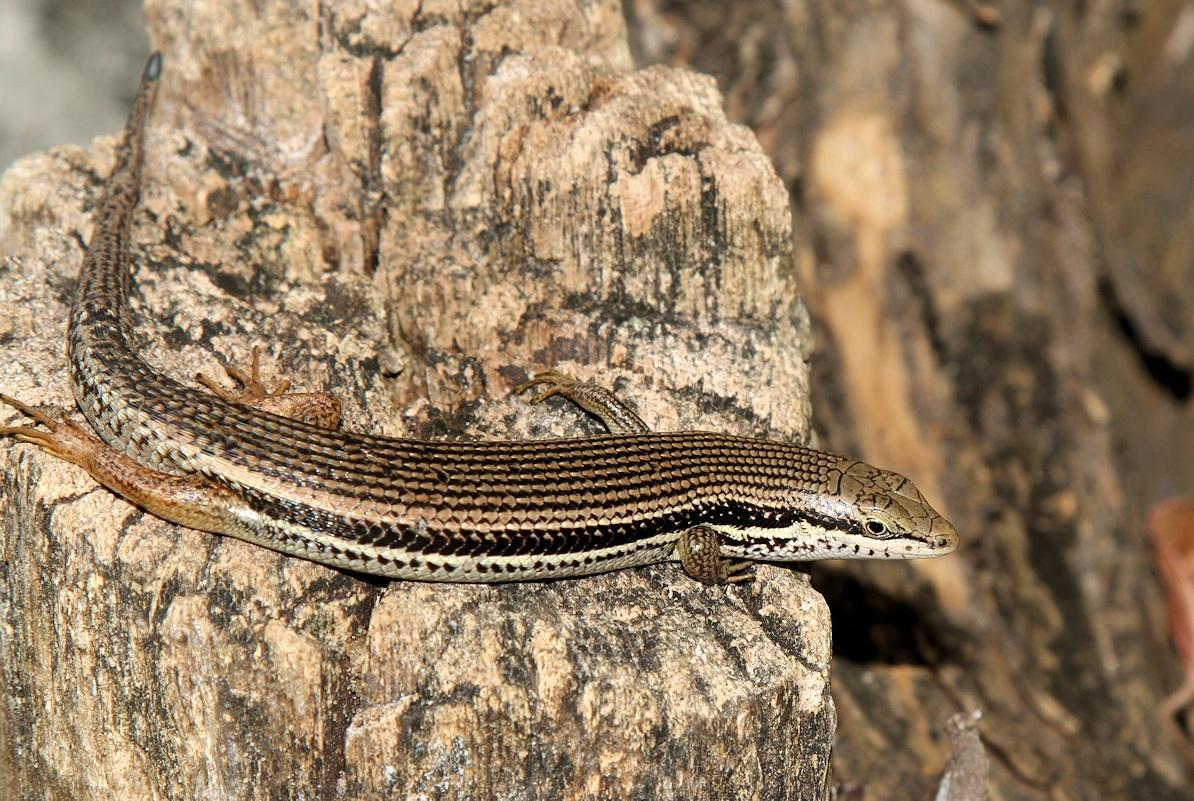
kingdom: Animalia
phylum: Chordata
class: Squamata
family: Scincidae
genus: Trachylepis
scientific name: Trachylepis depressa
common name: Eastern coastal skink
